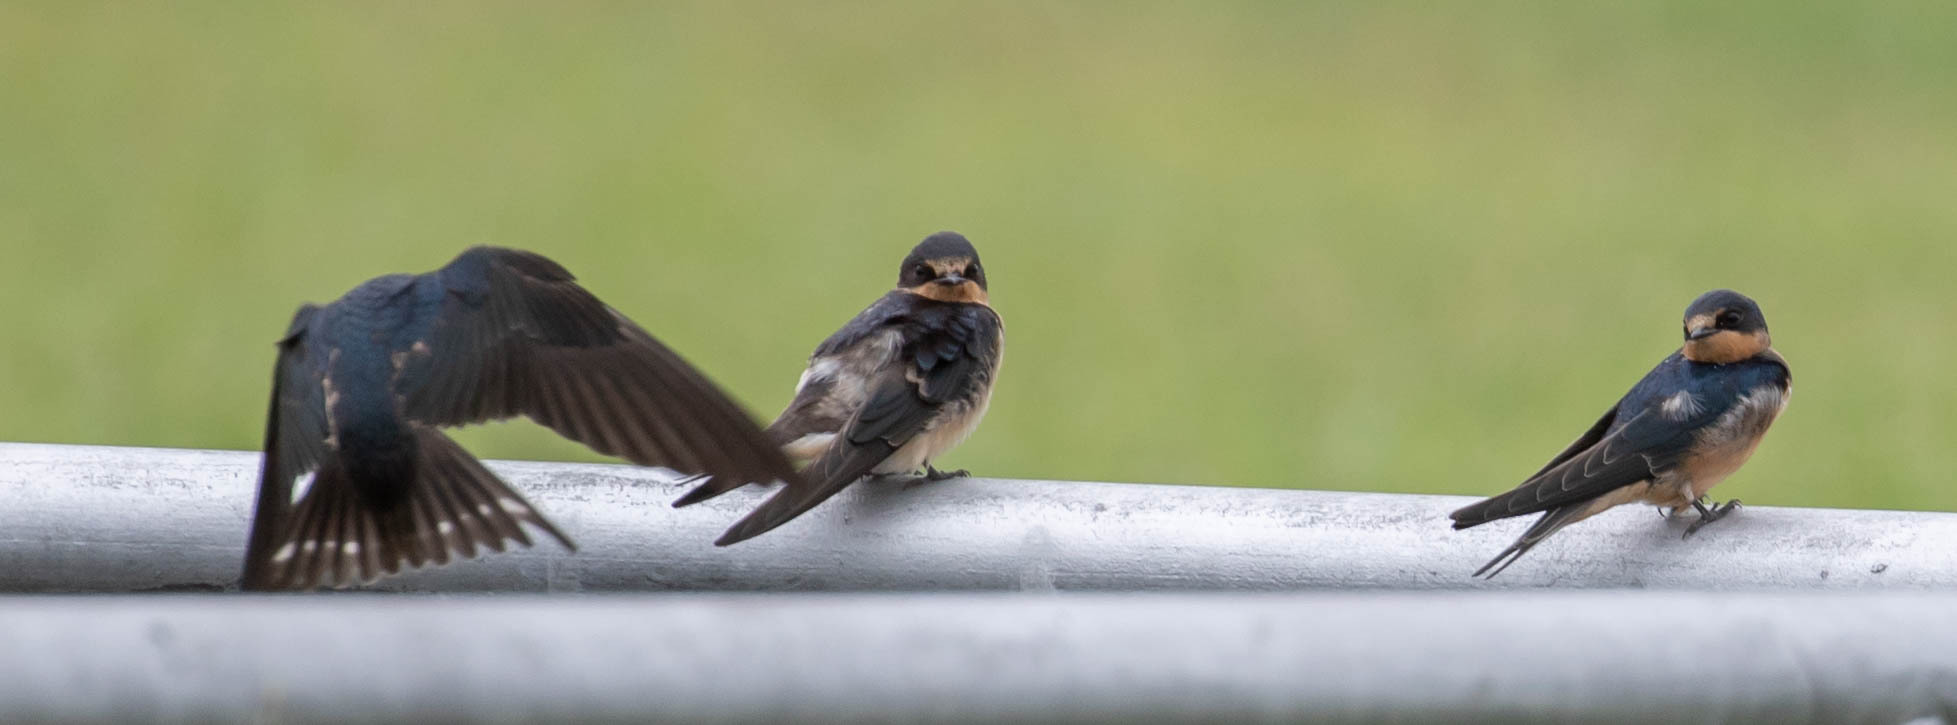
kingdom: Animalia
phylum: Chordata
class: Aves
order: Passeriformes
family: Hirundinidae
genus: Hirundo
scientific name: Hirundo rustica
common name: Barn swallow
